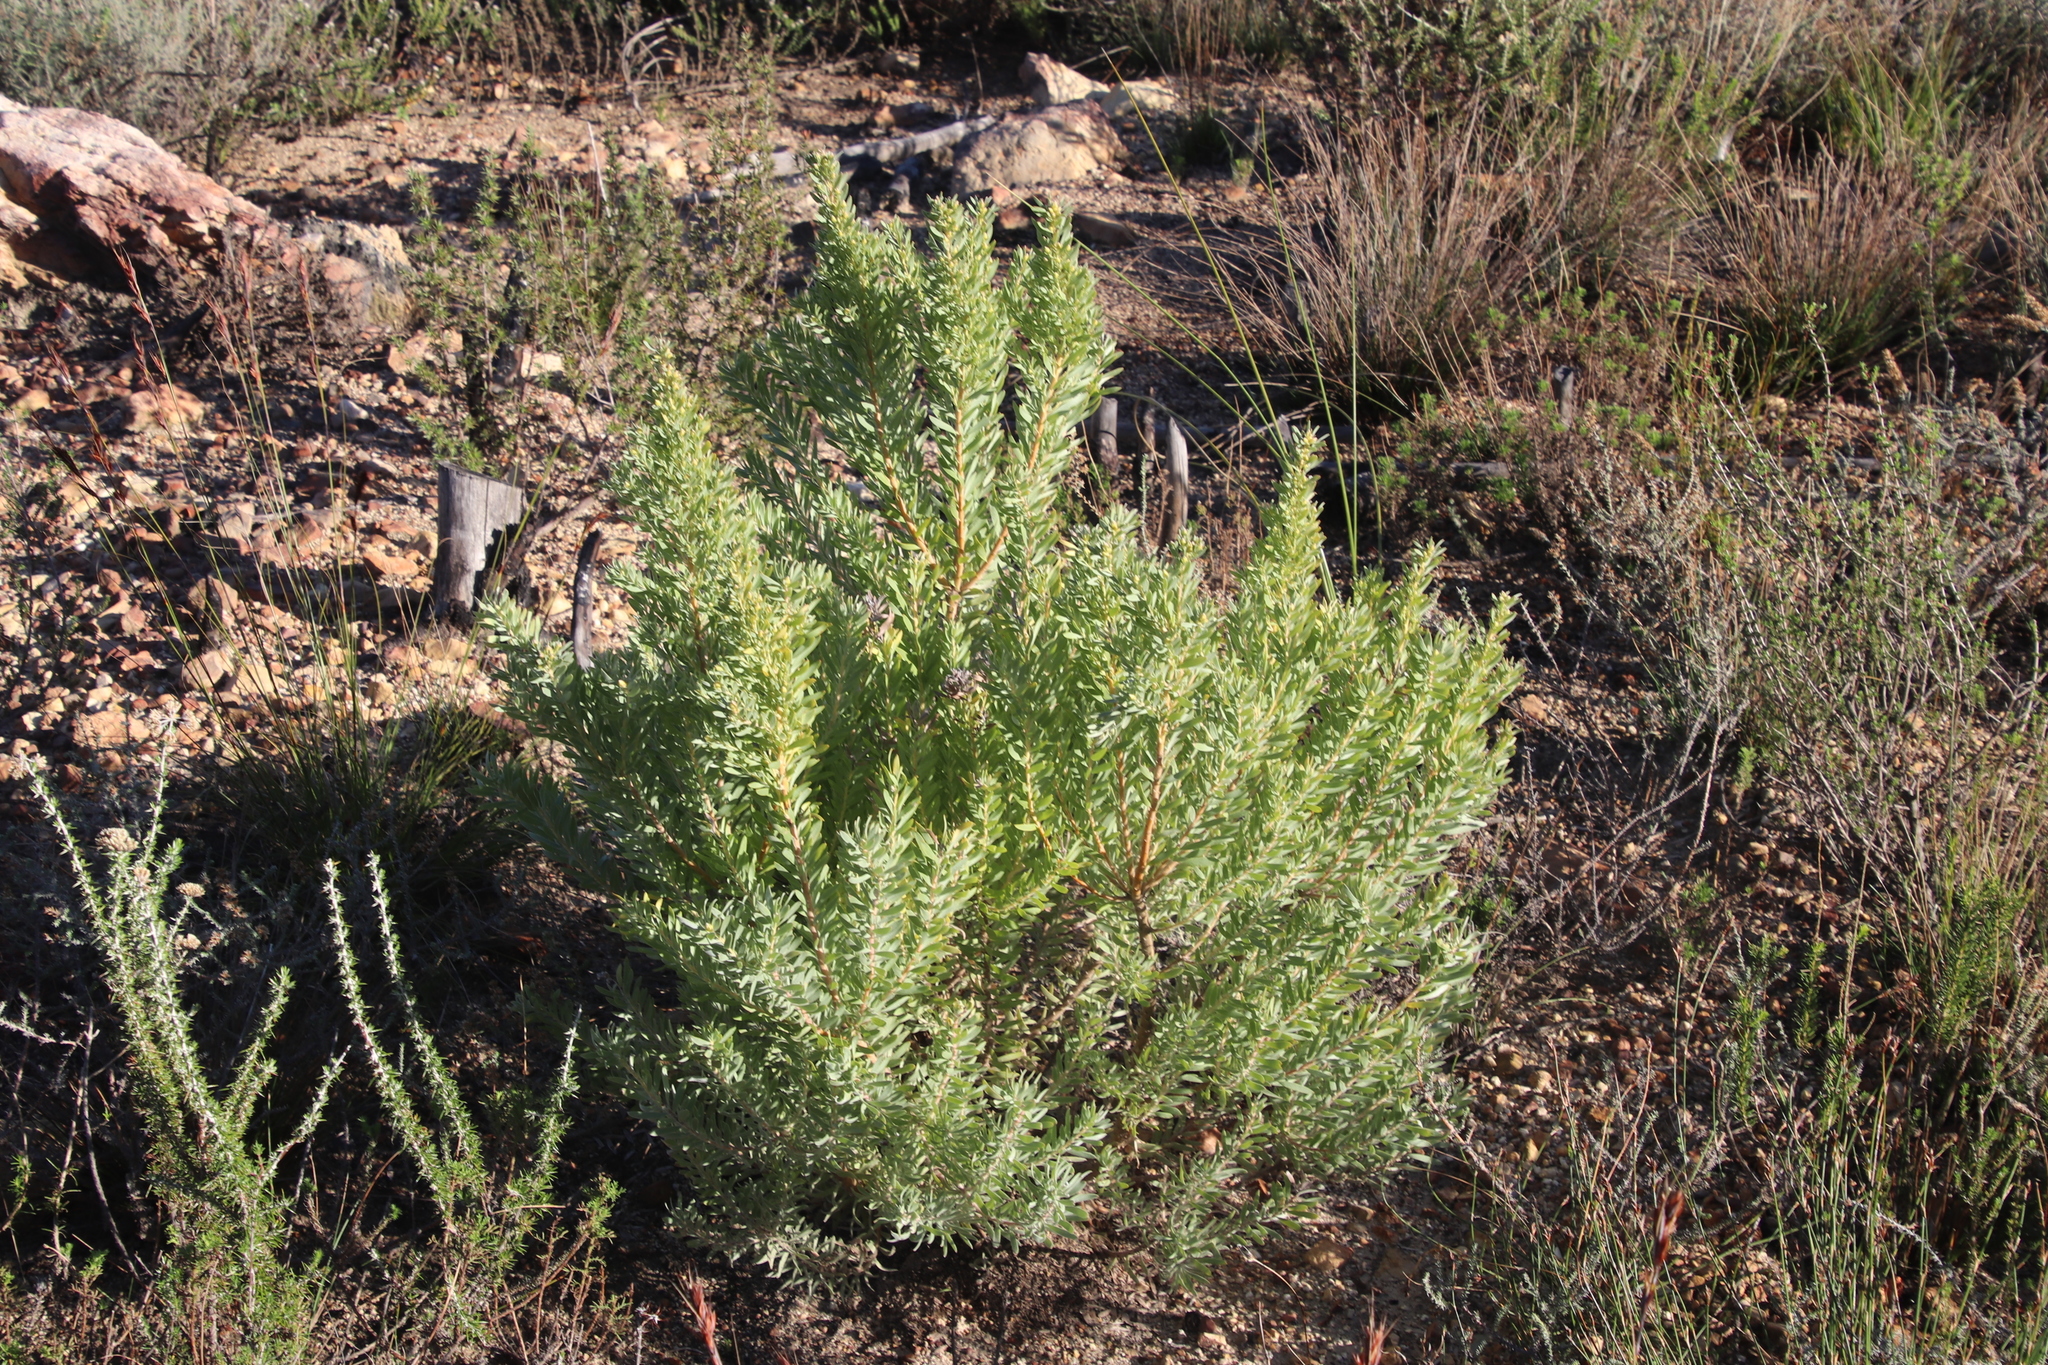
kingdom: Plantae
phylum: Tracheophyta
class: Magnoliopsida
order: Proteales
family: Proteaceae
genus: Leucadendron
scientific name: Leucadendron rubrum
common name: Spinning top
